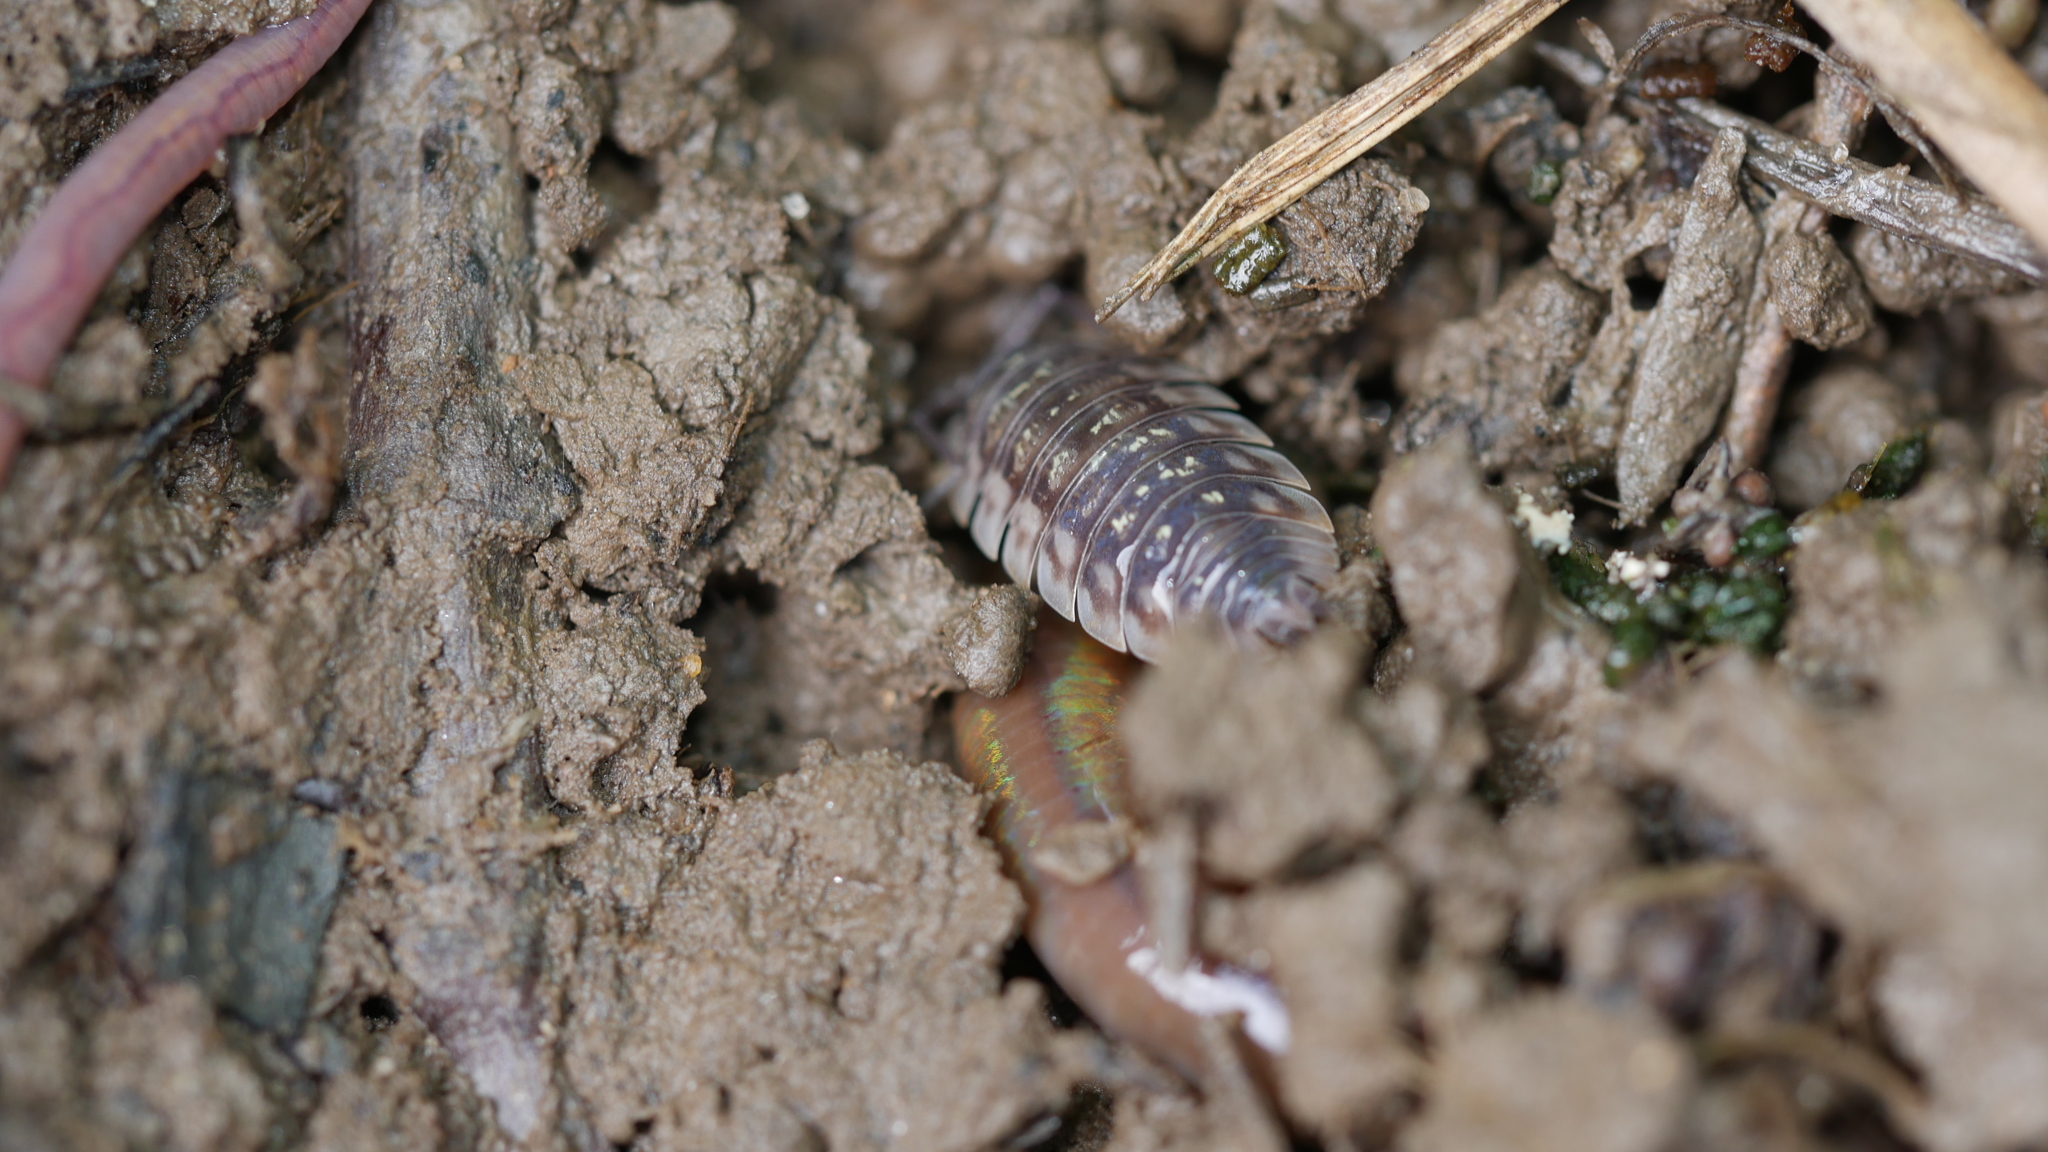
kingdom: Animalia
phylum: Arthropoda
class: Malacostraca
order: Isopoda
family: Oniscidae
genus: Oniscus
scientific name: Oniscus asellus
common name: Common shiny woodlouse
